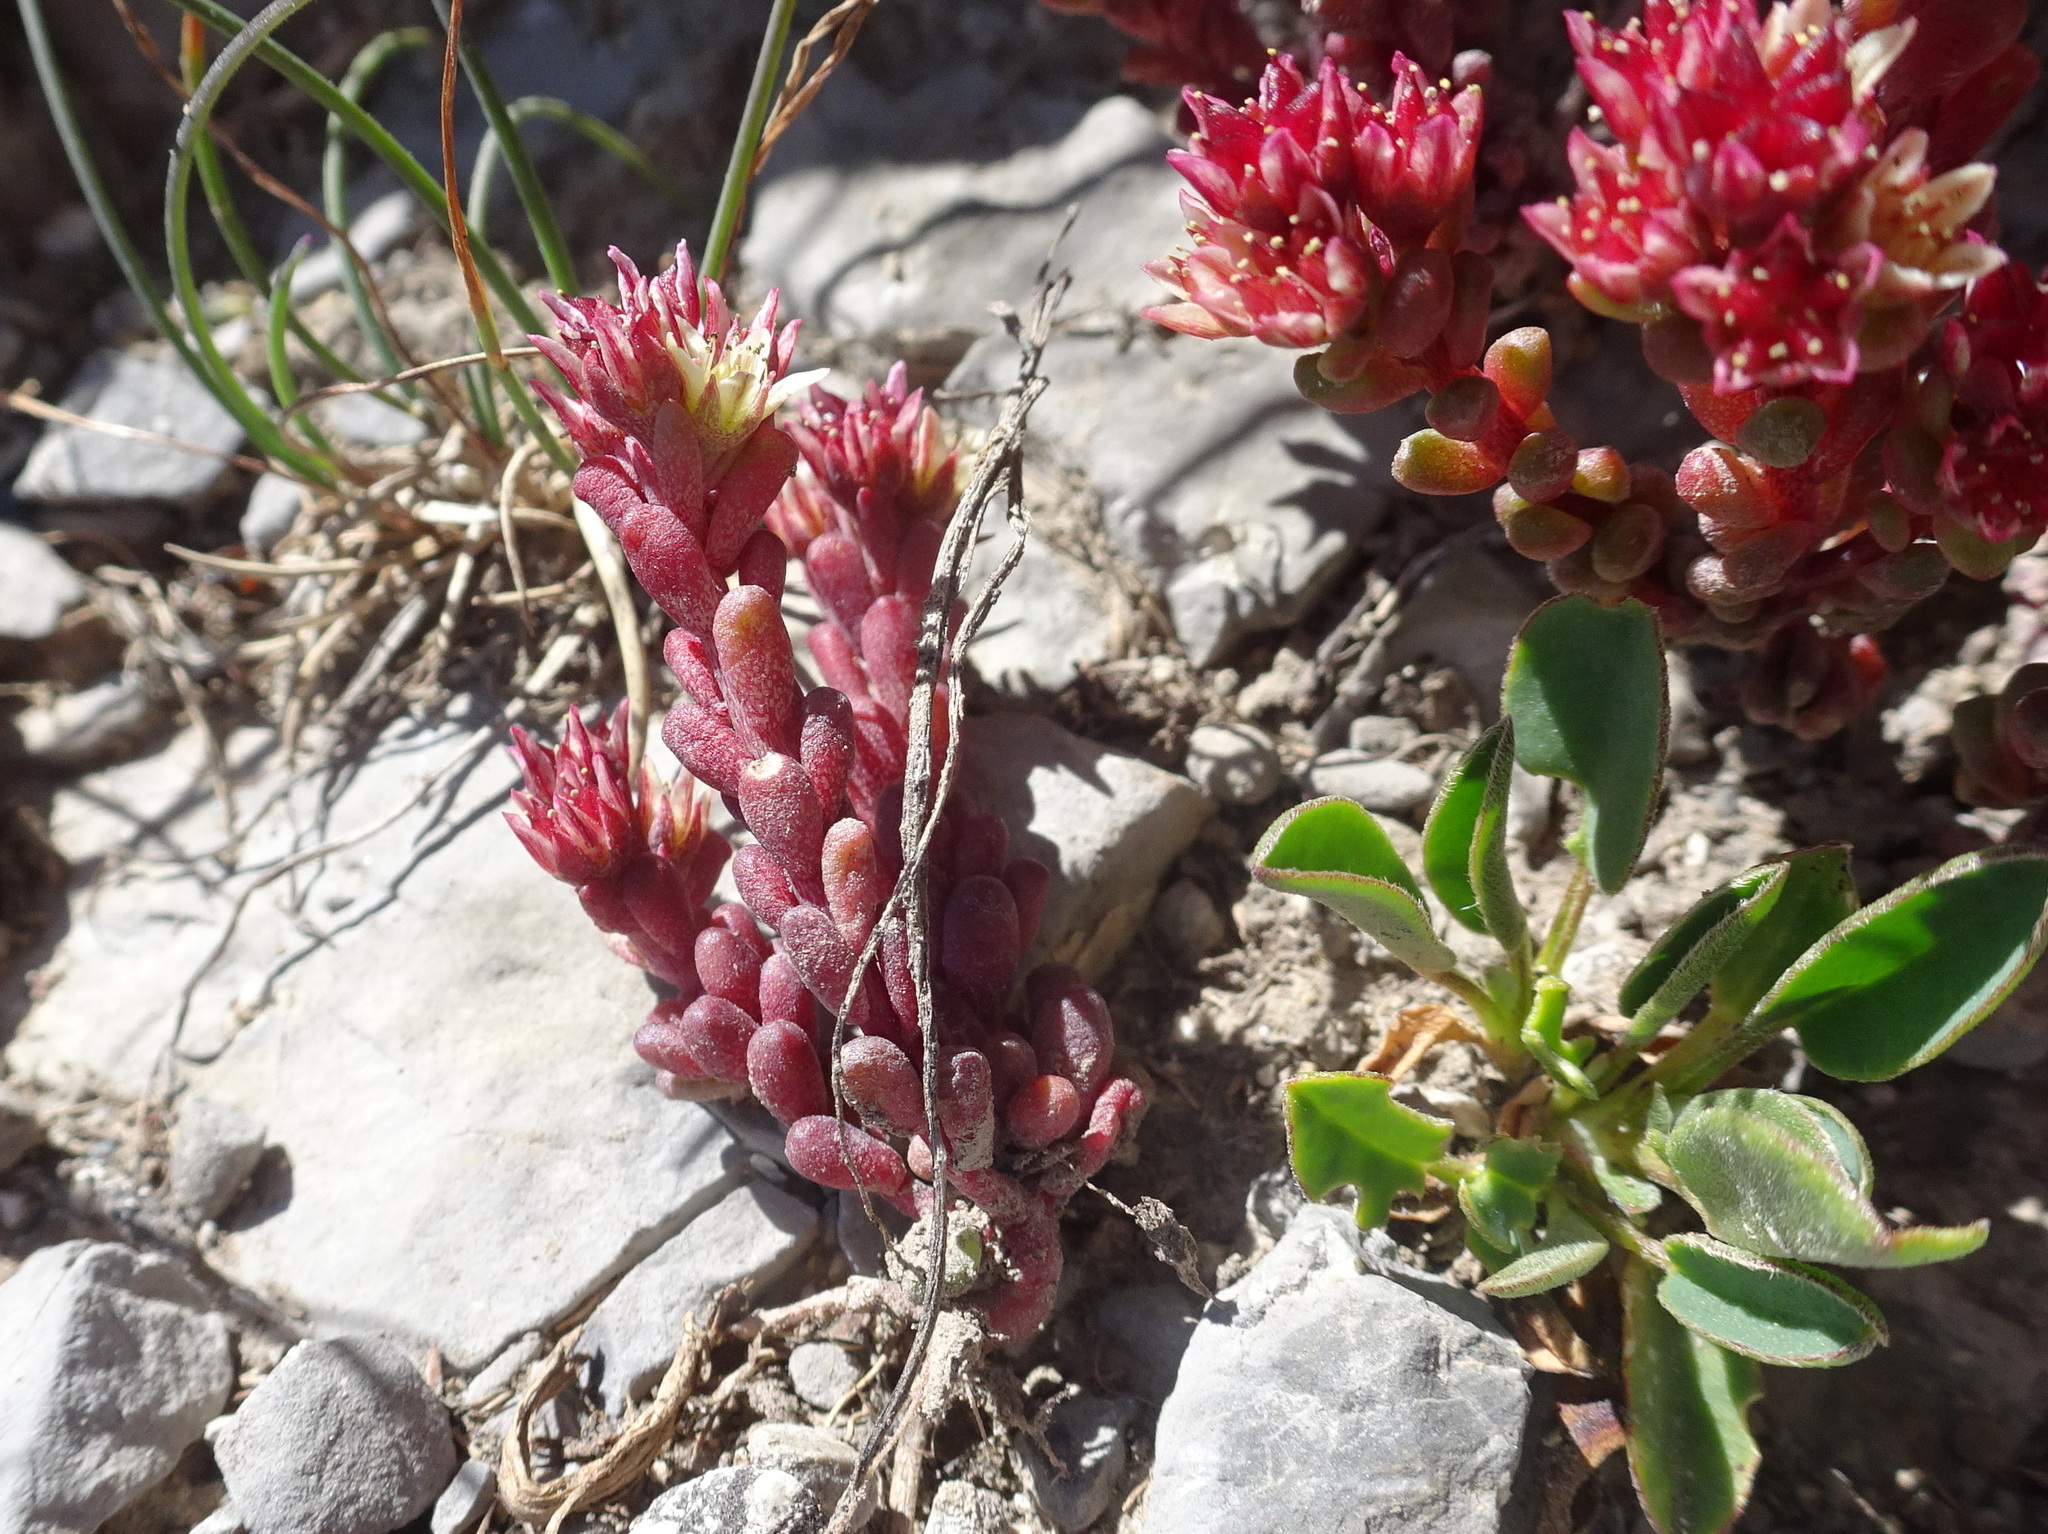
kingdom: Plantae
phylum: Tracheophyta
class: Magnoliopsida
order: Saxifragales
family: Crassulaceae
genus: Sedum
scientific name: Sedum atratum
